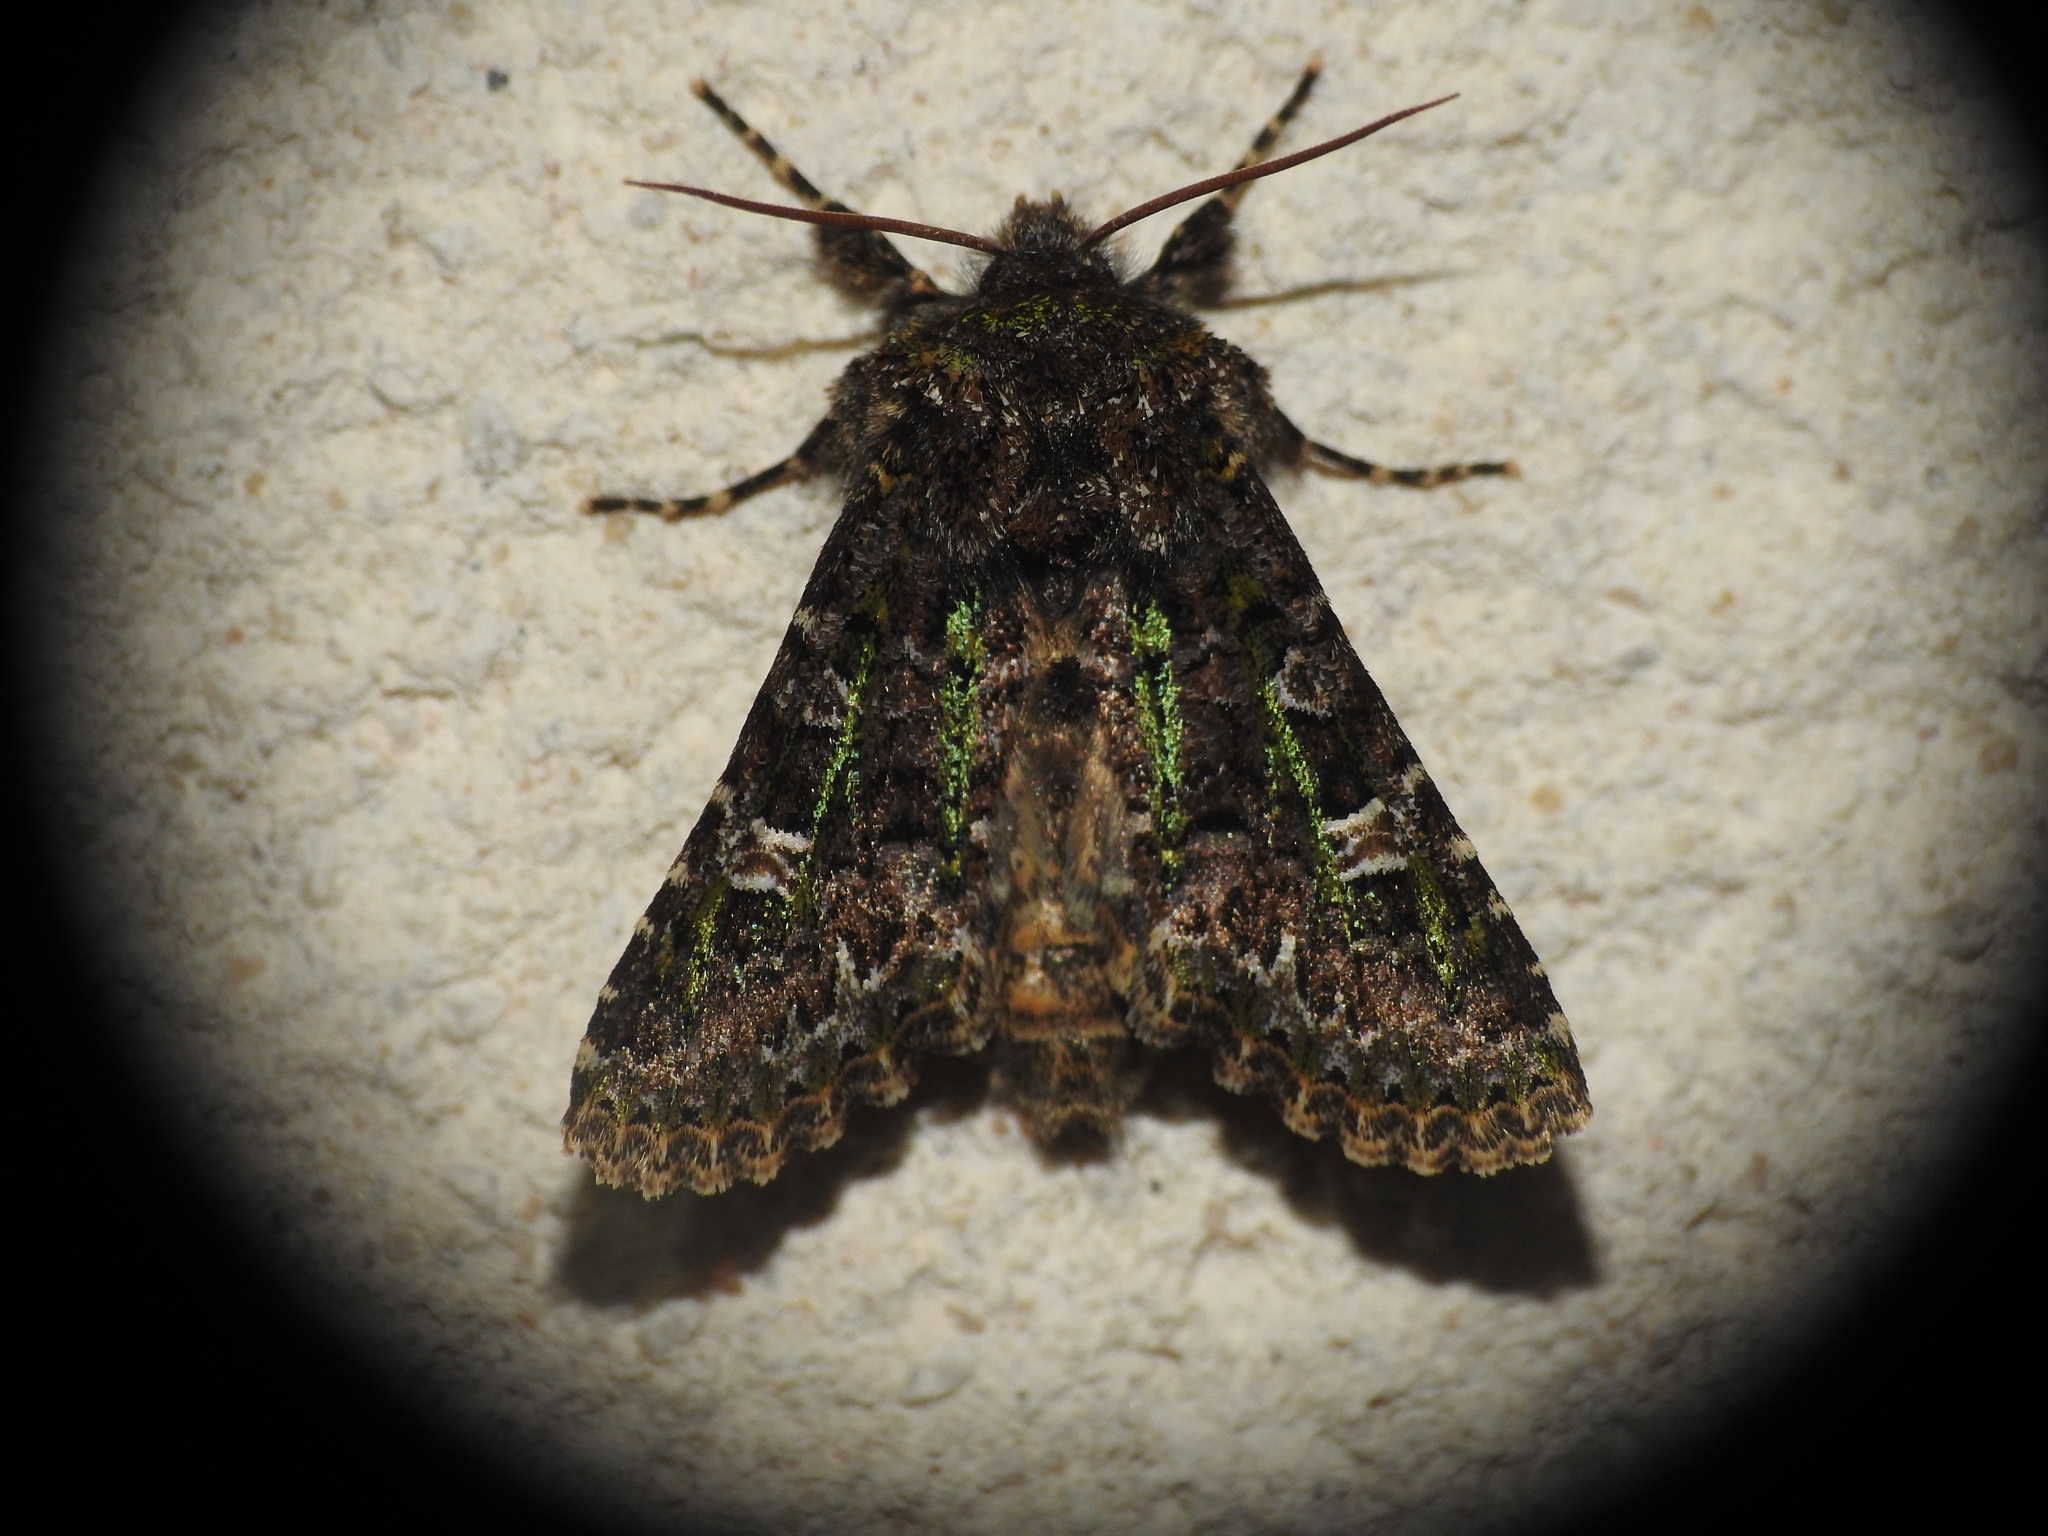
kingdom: Animalia
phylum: Arthropoda
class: Insecta
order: Lepidoptera
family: Noctuidae
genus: Valeria
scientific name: Valeria jaspidea
